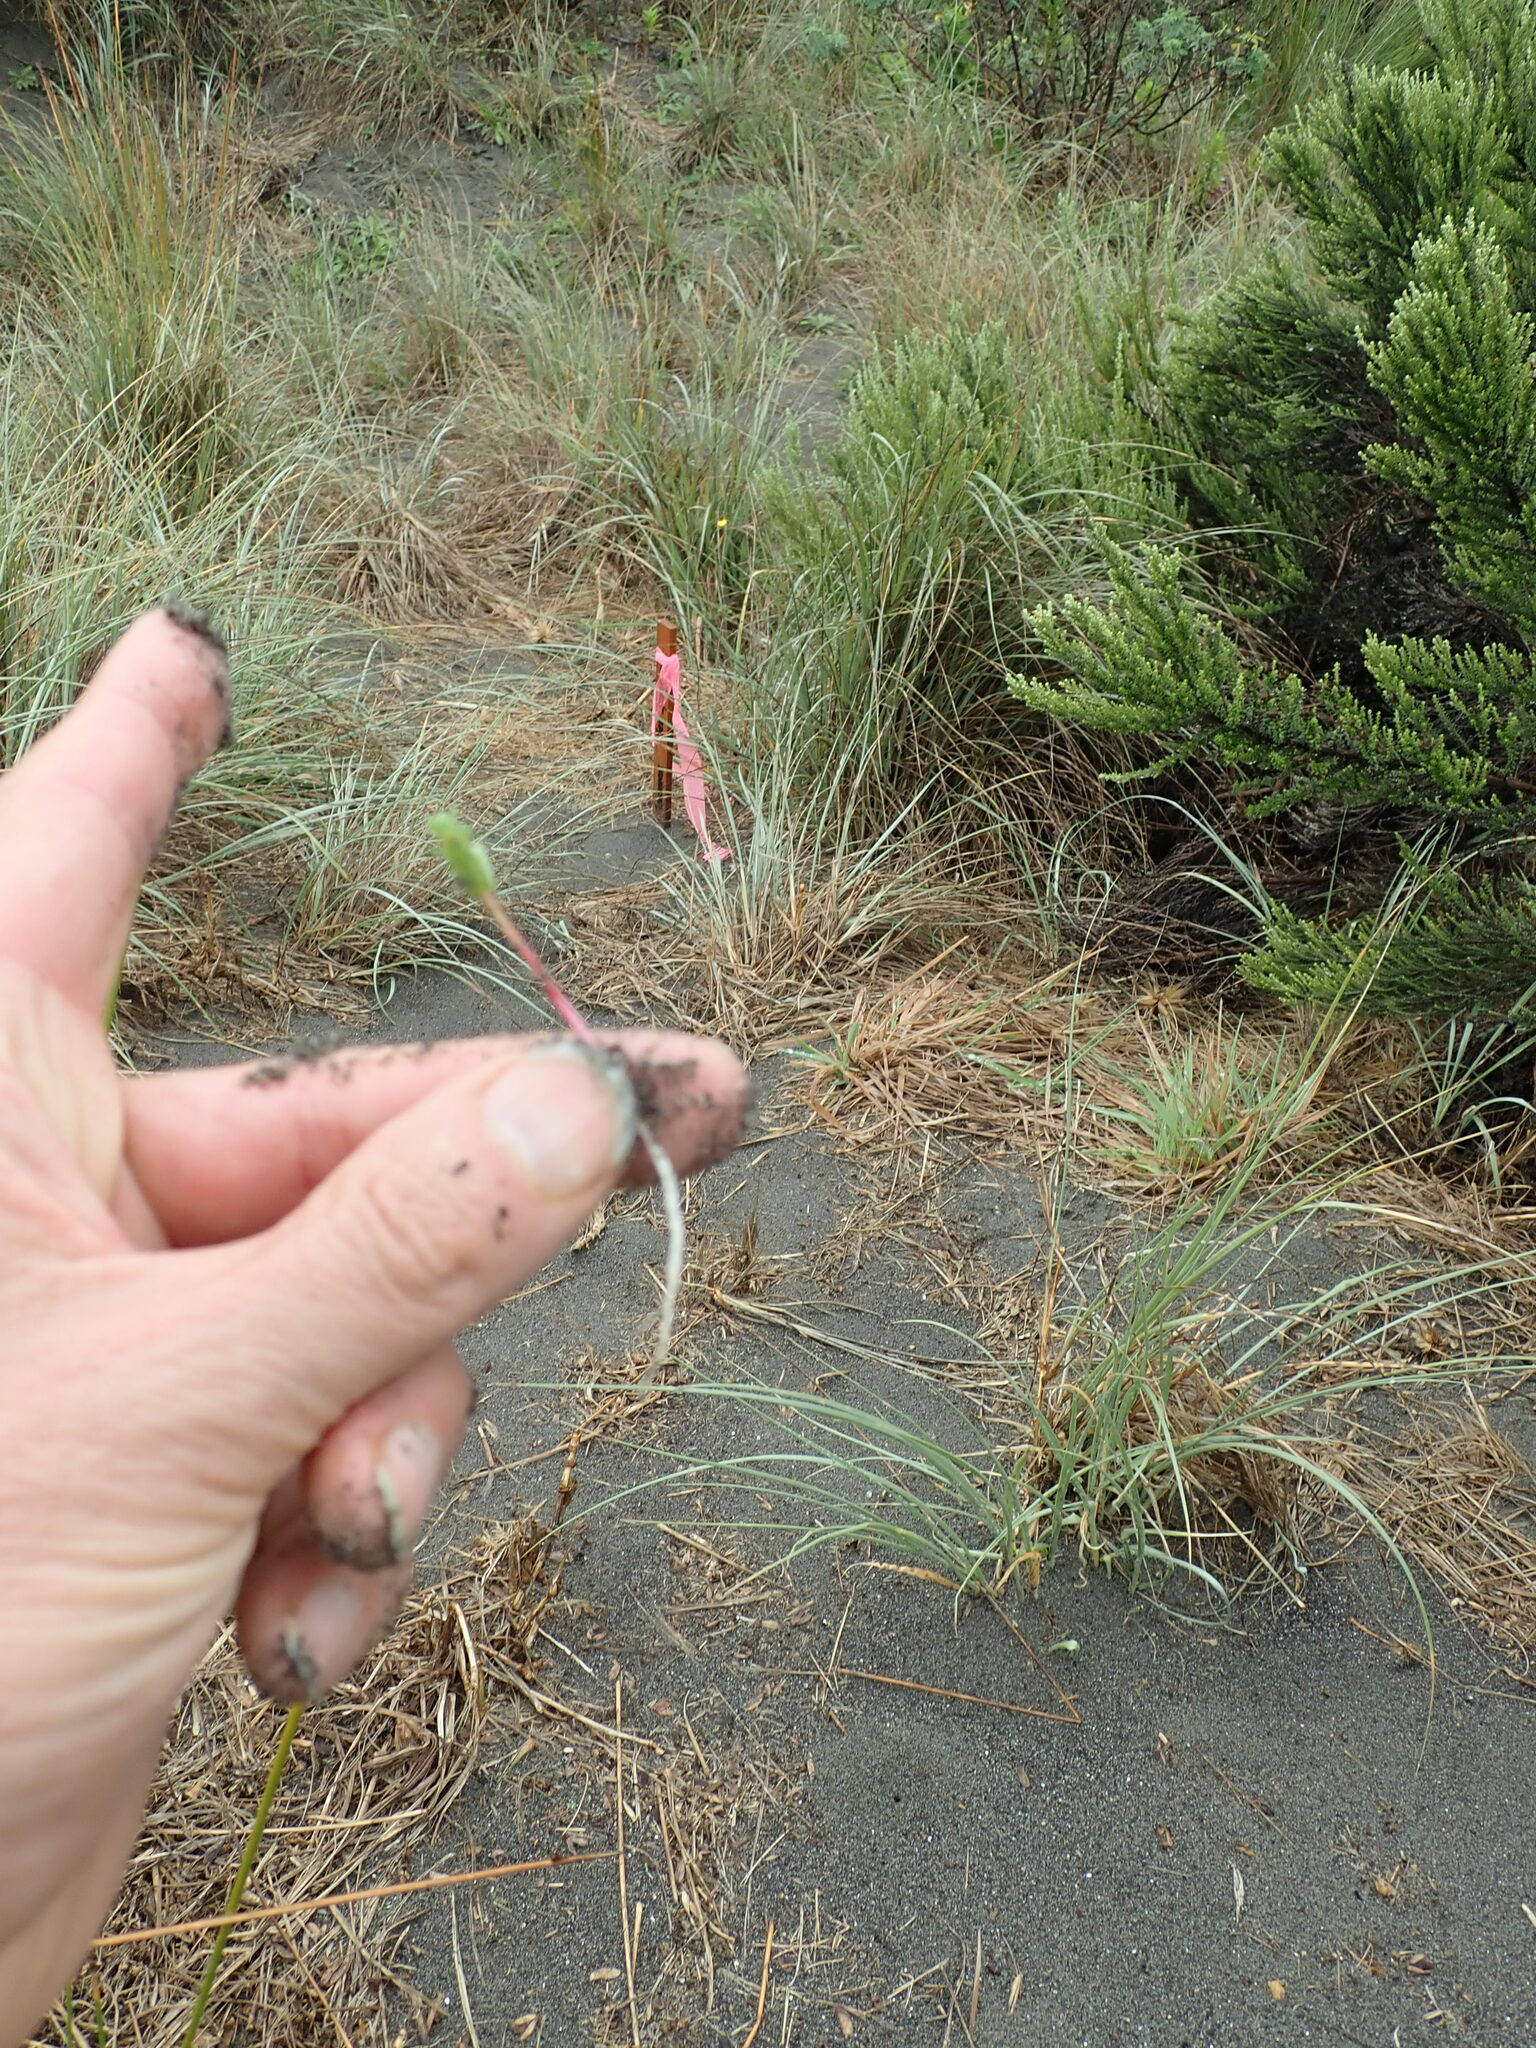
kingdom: Plantae
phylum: Tracheophyta
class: Magnoliopsida
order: Malpighiales
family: Euphorbiaceae
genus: Euphorbia
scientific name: Euphorbia paralias
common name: Sea spurge
